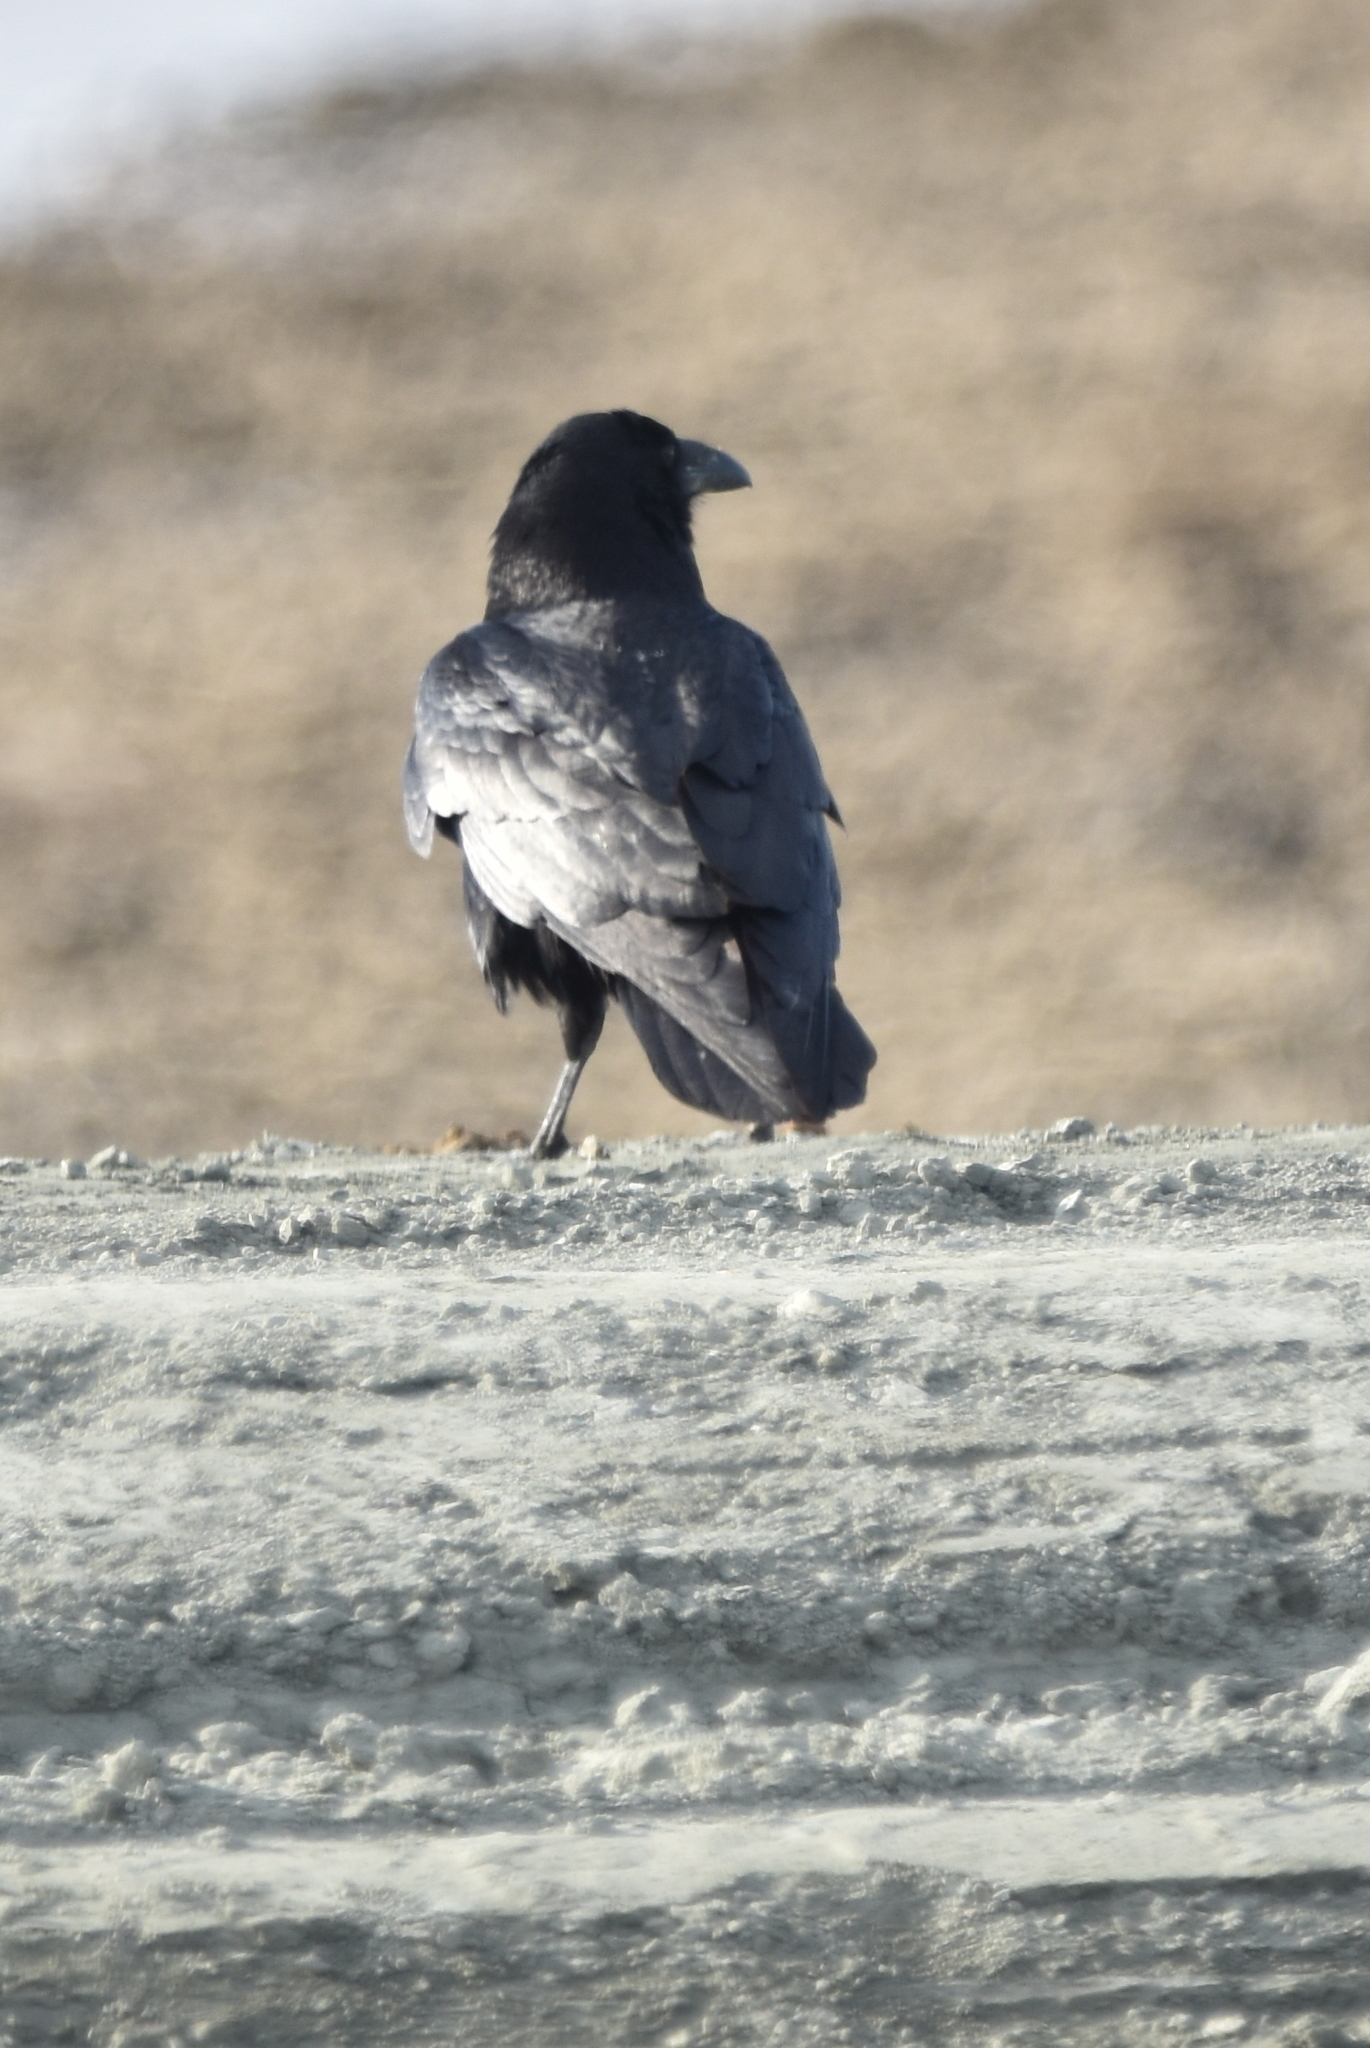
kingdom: Animalia
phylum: Chordata
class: Aves
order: Passeriformes
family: Corvidae
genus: Corvus
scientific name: Corvus corax
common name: Common raven
